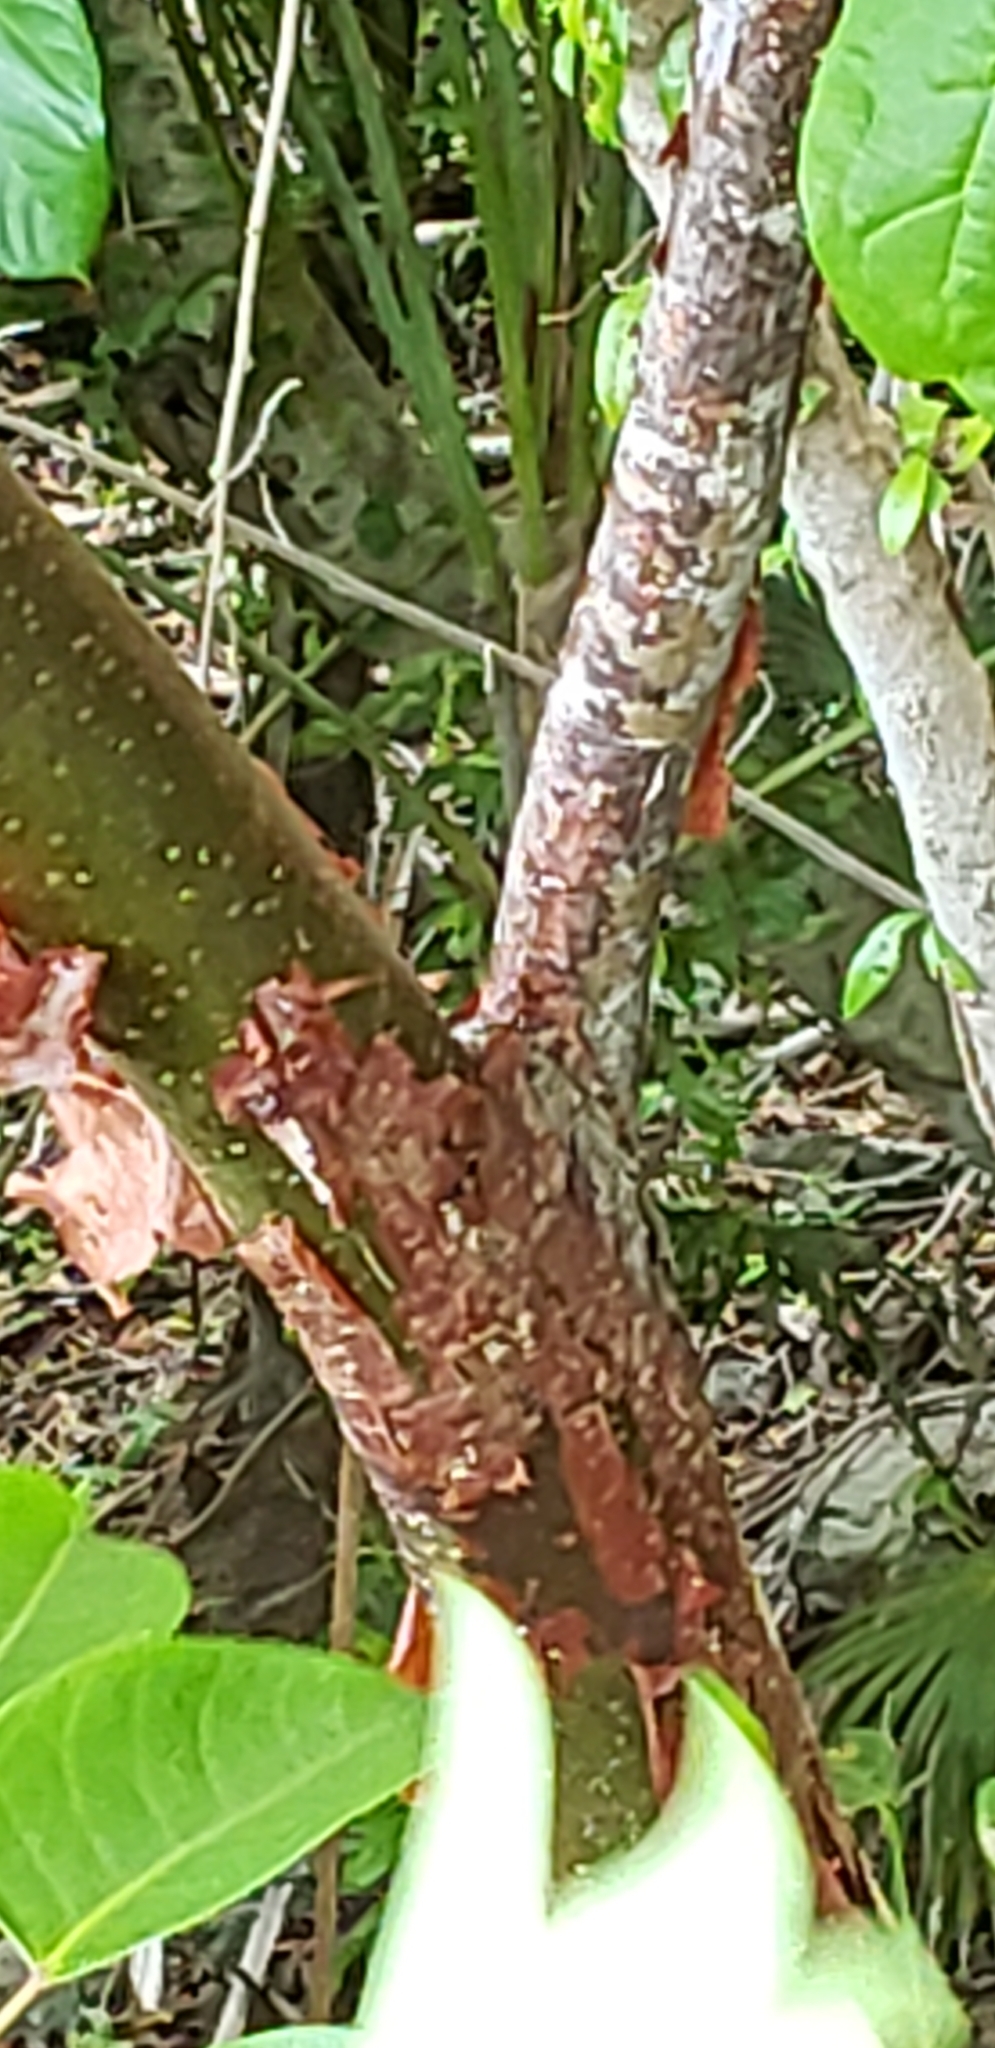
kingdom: Plantae
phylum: Tracheophyta
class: Magnoliopsida
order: Sapindales
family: Burseraceae
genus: Bursera
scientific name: Bursera simaruba
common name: Turpentine tree
